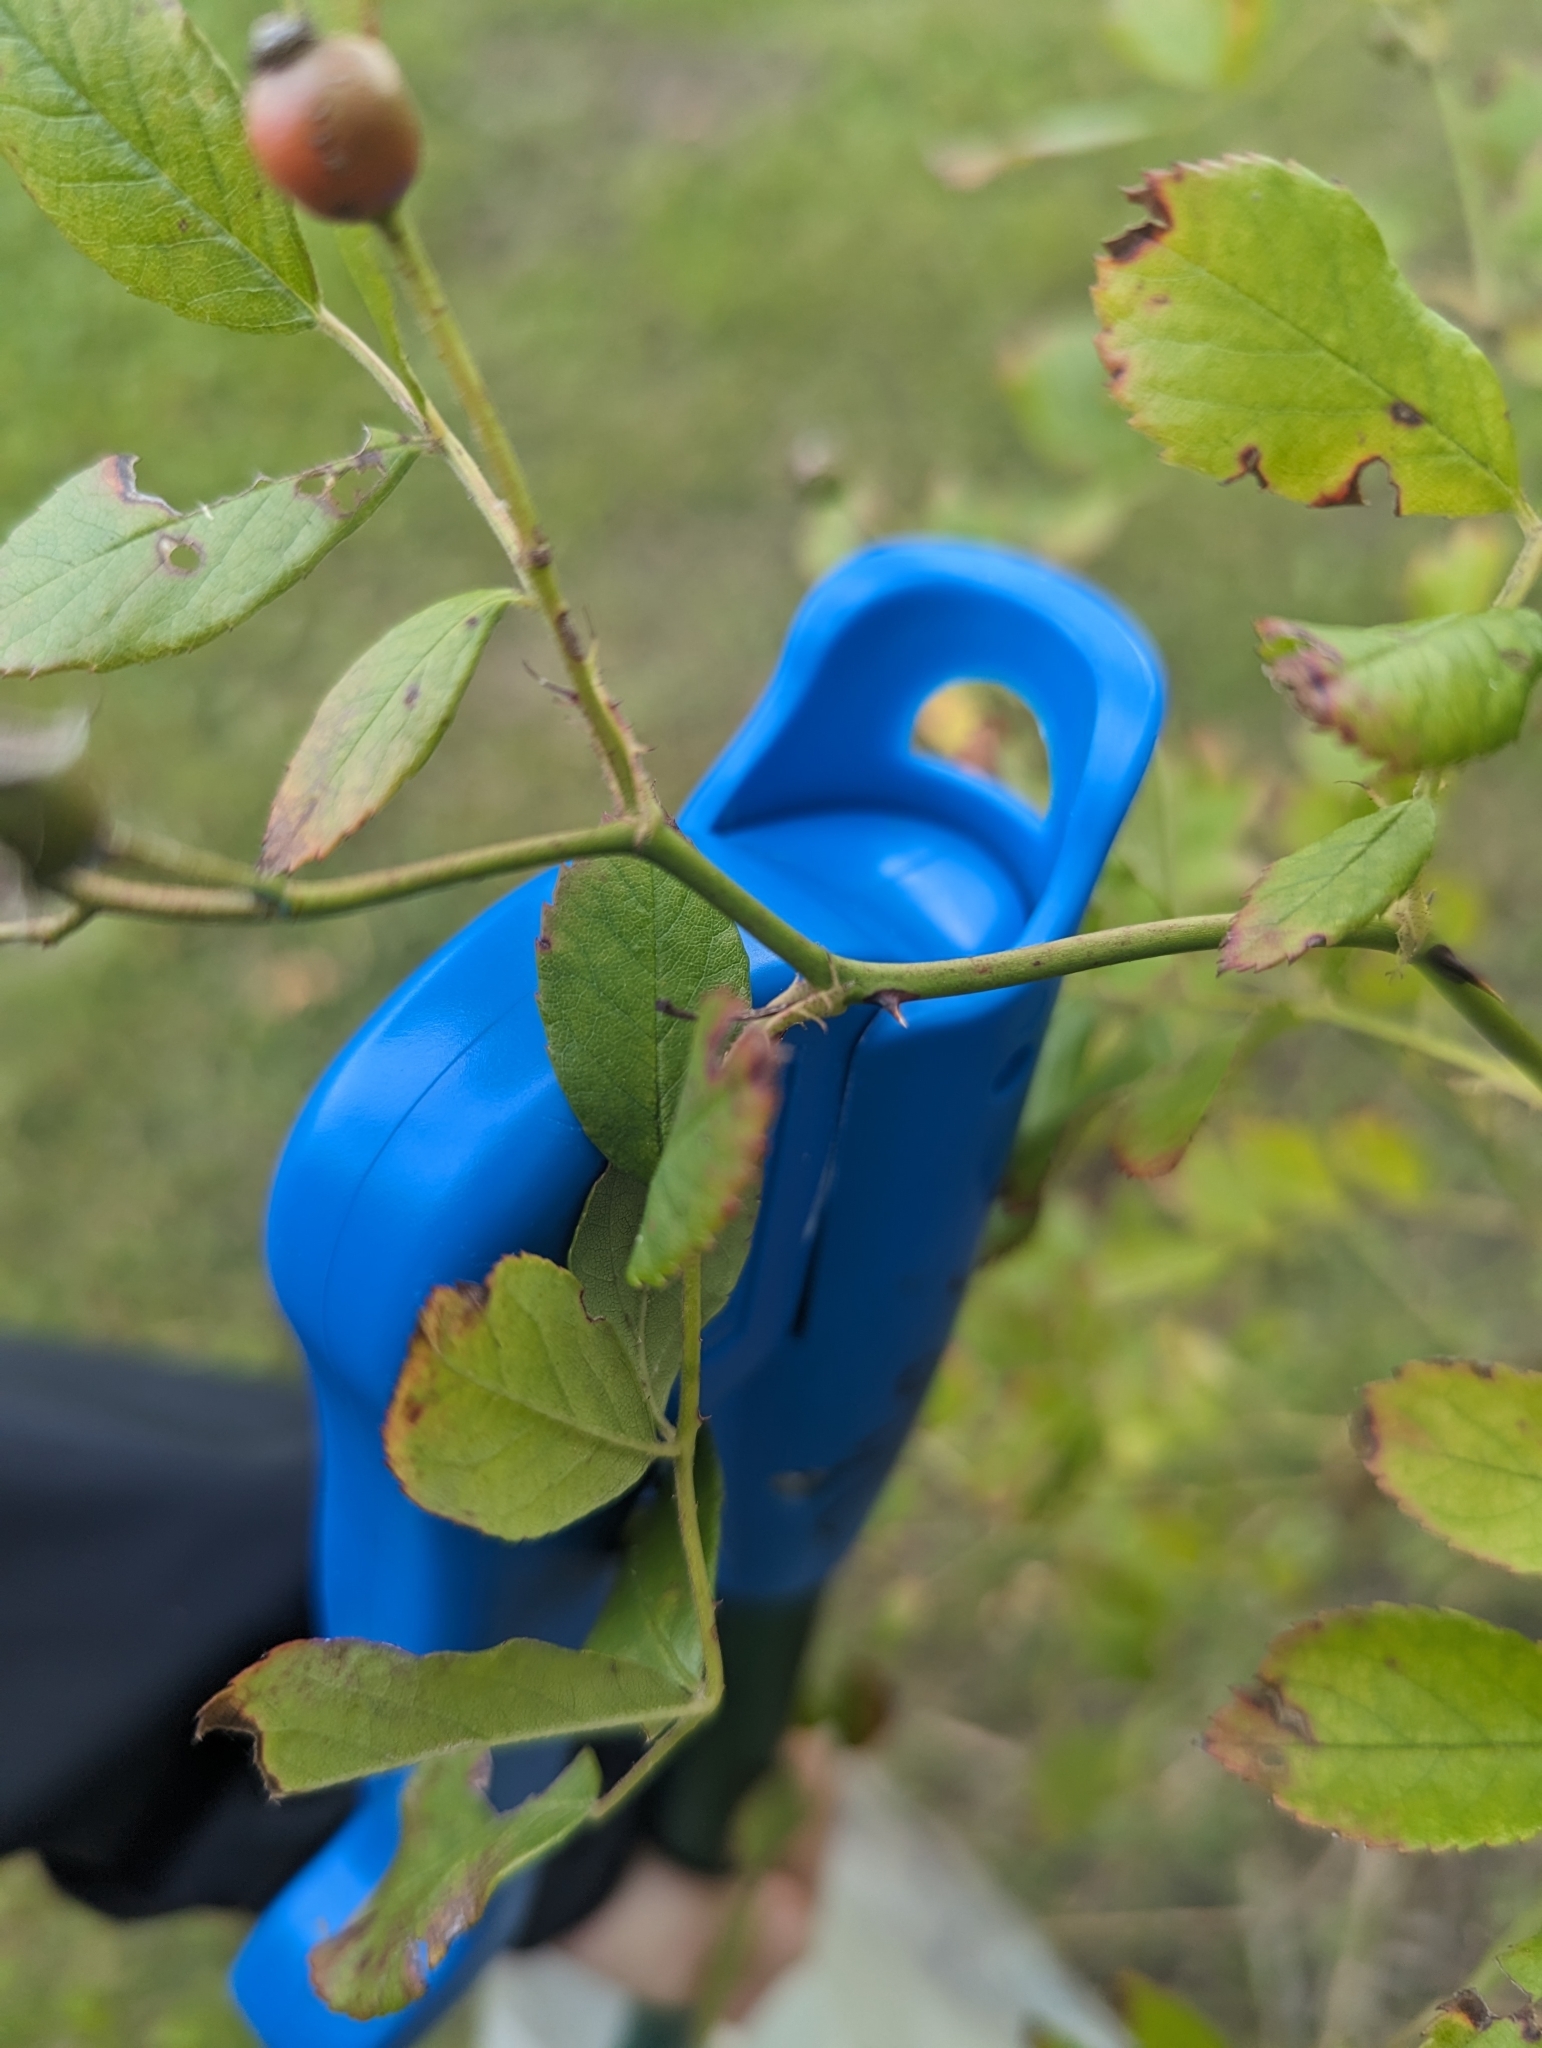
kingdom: Plantae
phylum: Tracheophyta
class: Magnoliopsida
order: Rosales
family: Rosaceae
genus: Rosa
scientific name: Rosa multiflora
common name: Multiflora rose
